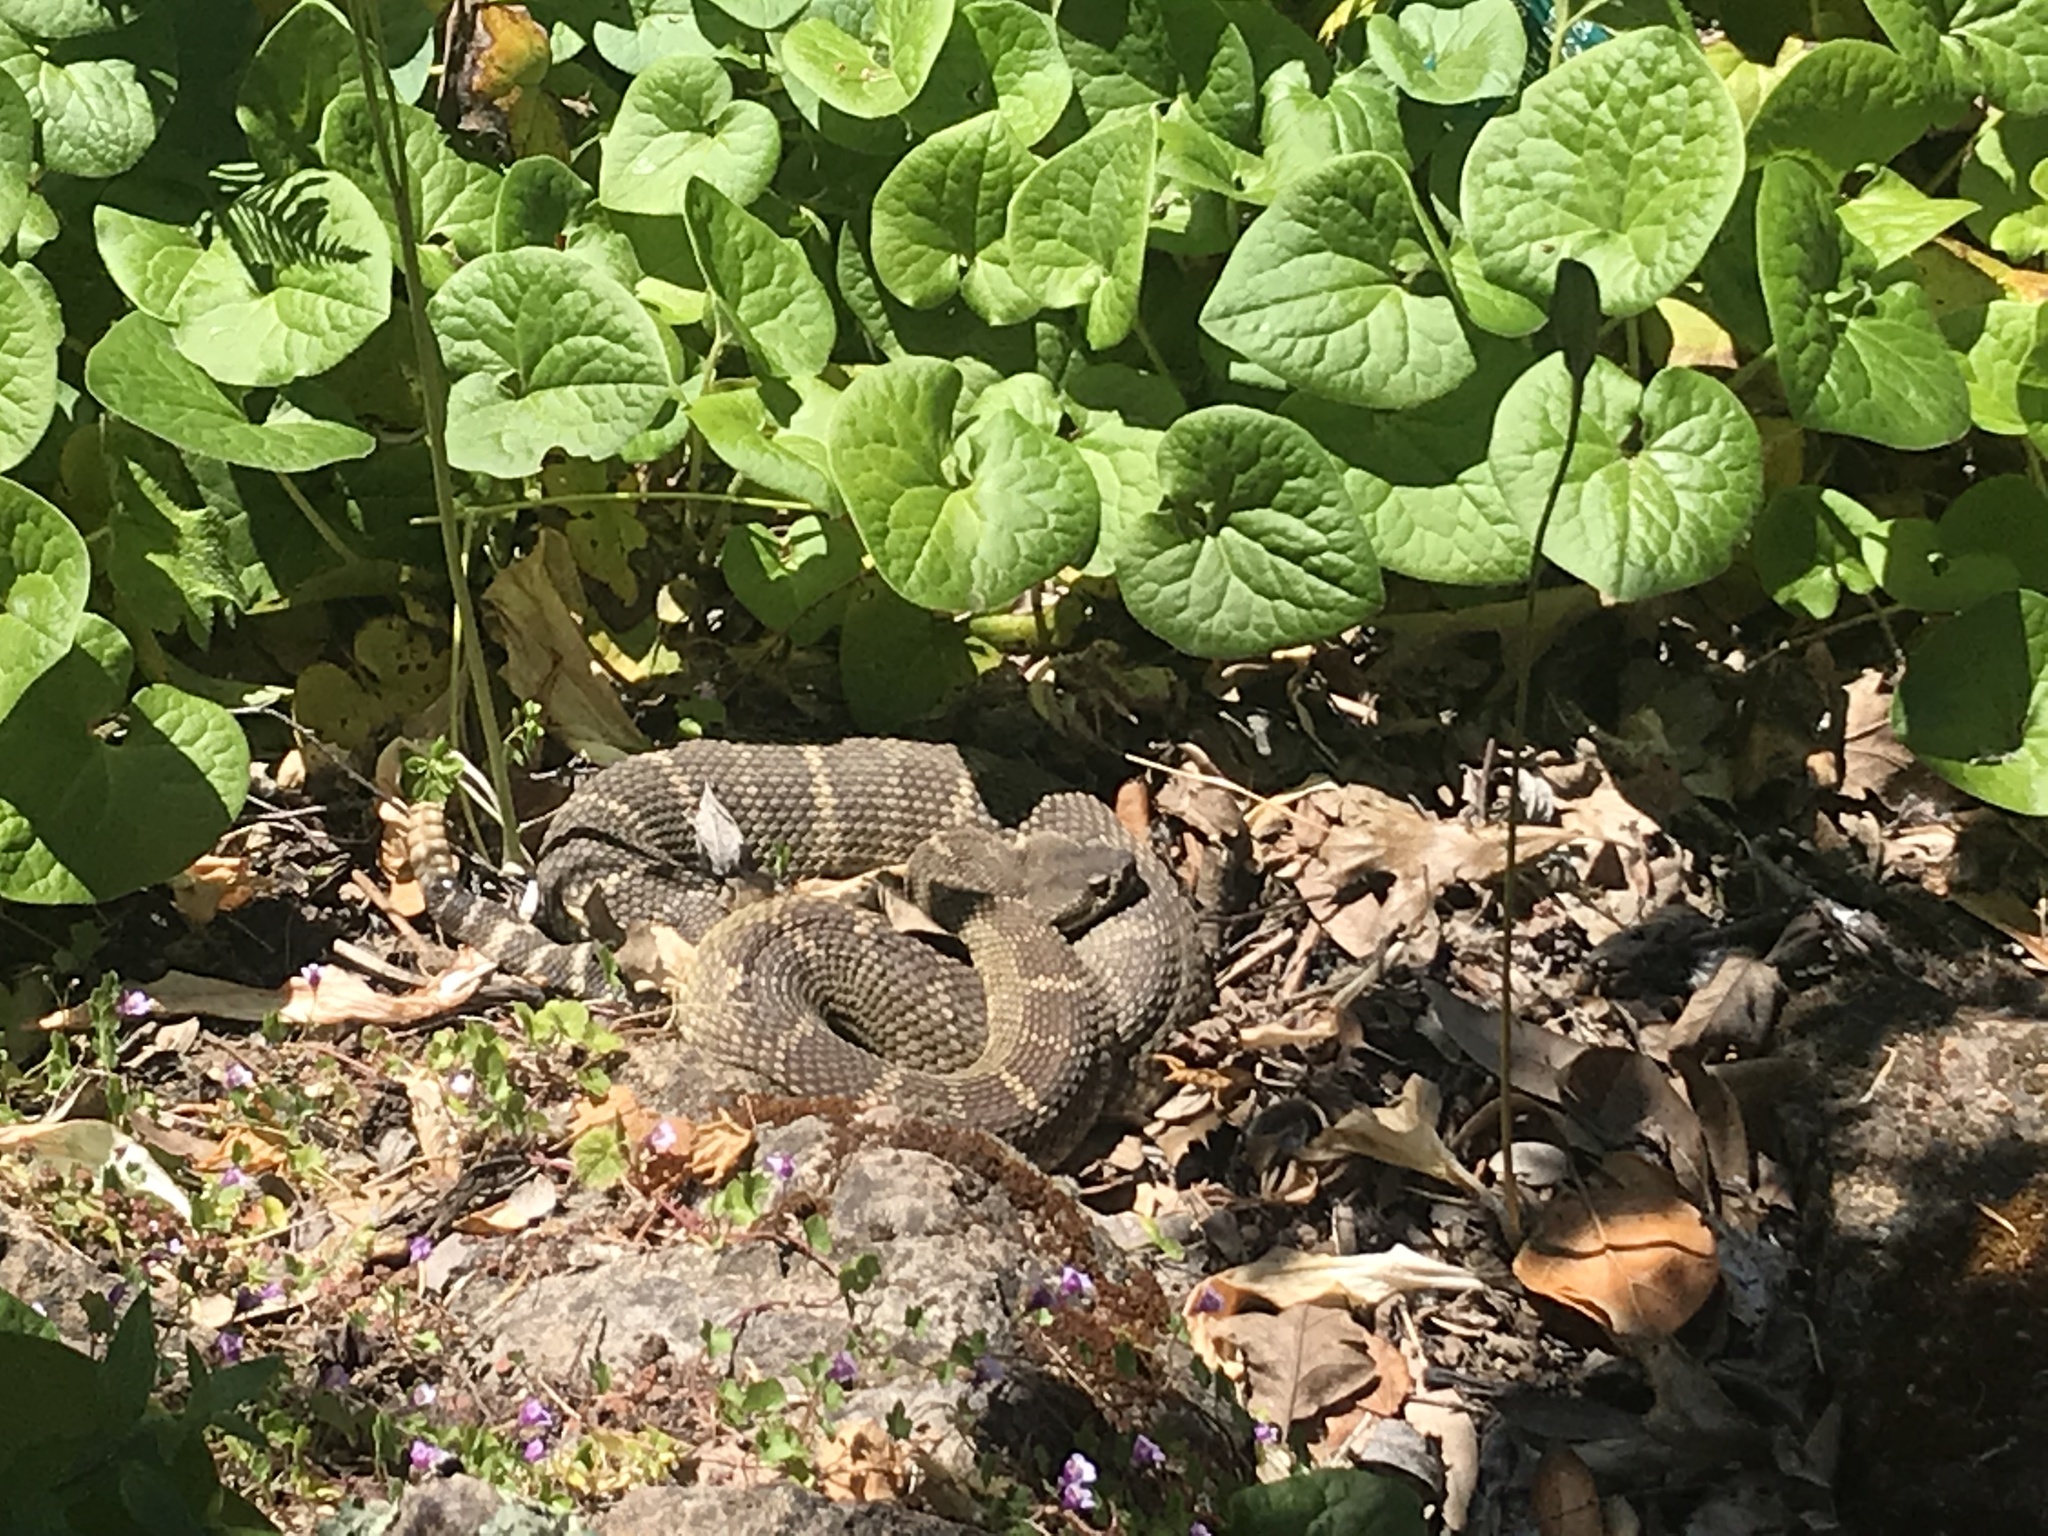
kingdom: Animalia
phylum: Chordata
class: Squamata
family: Viperidae
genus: Crotalus
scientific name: Crotalus oreganus
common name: Abyssus
